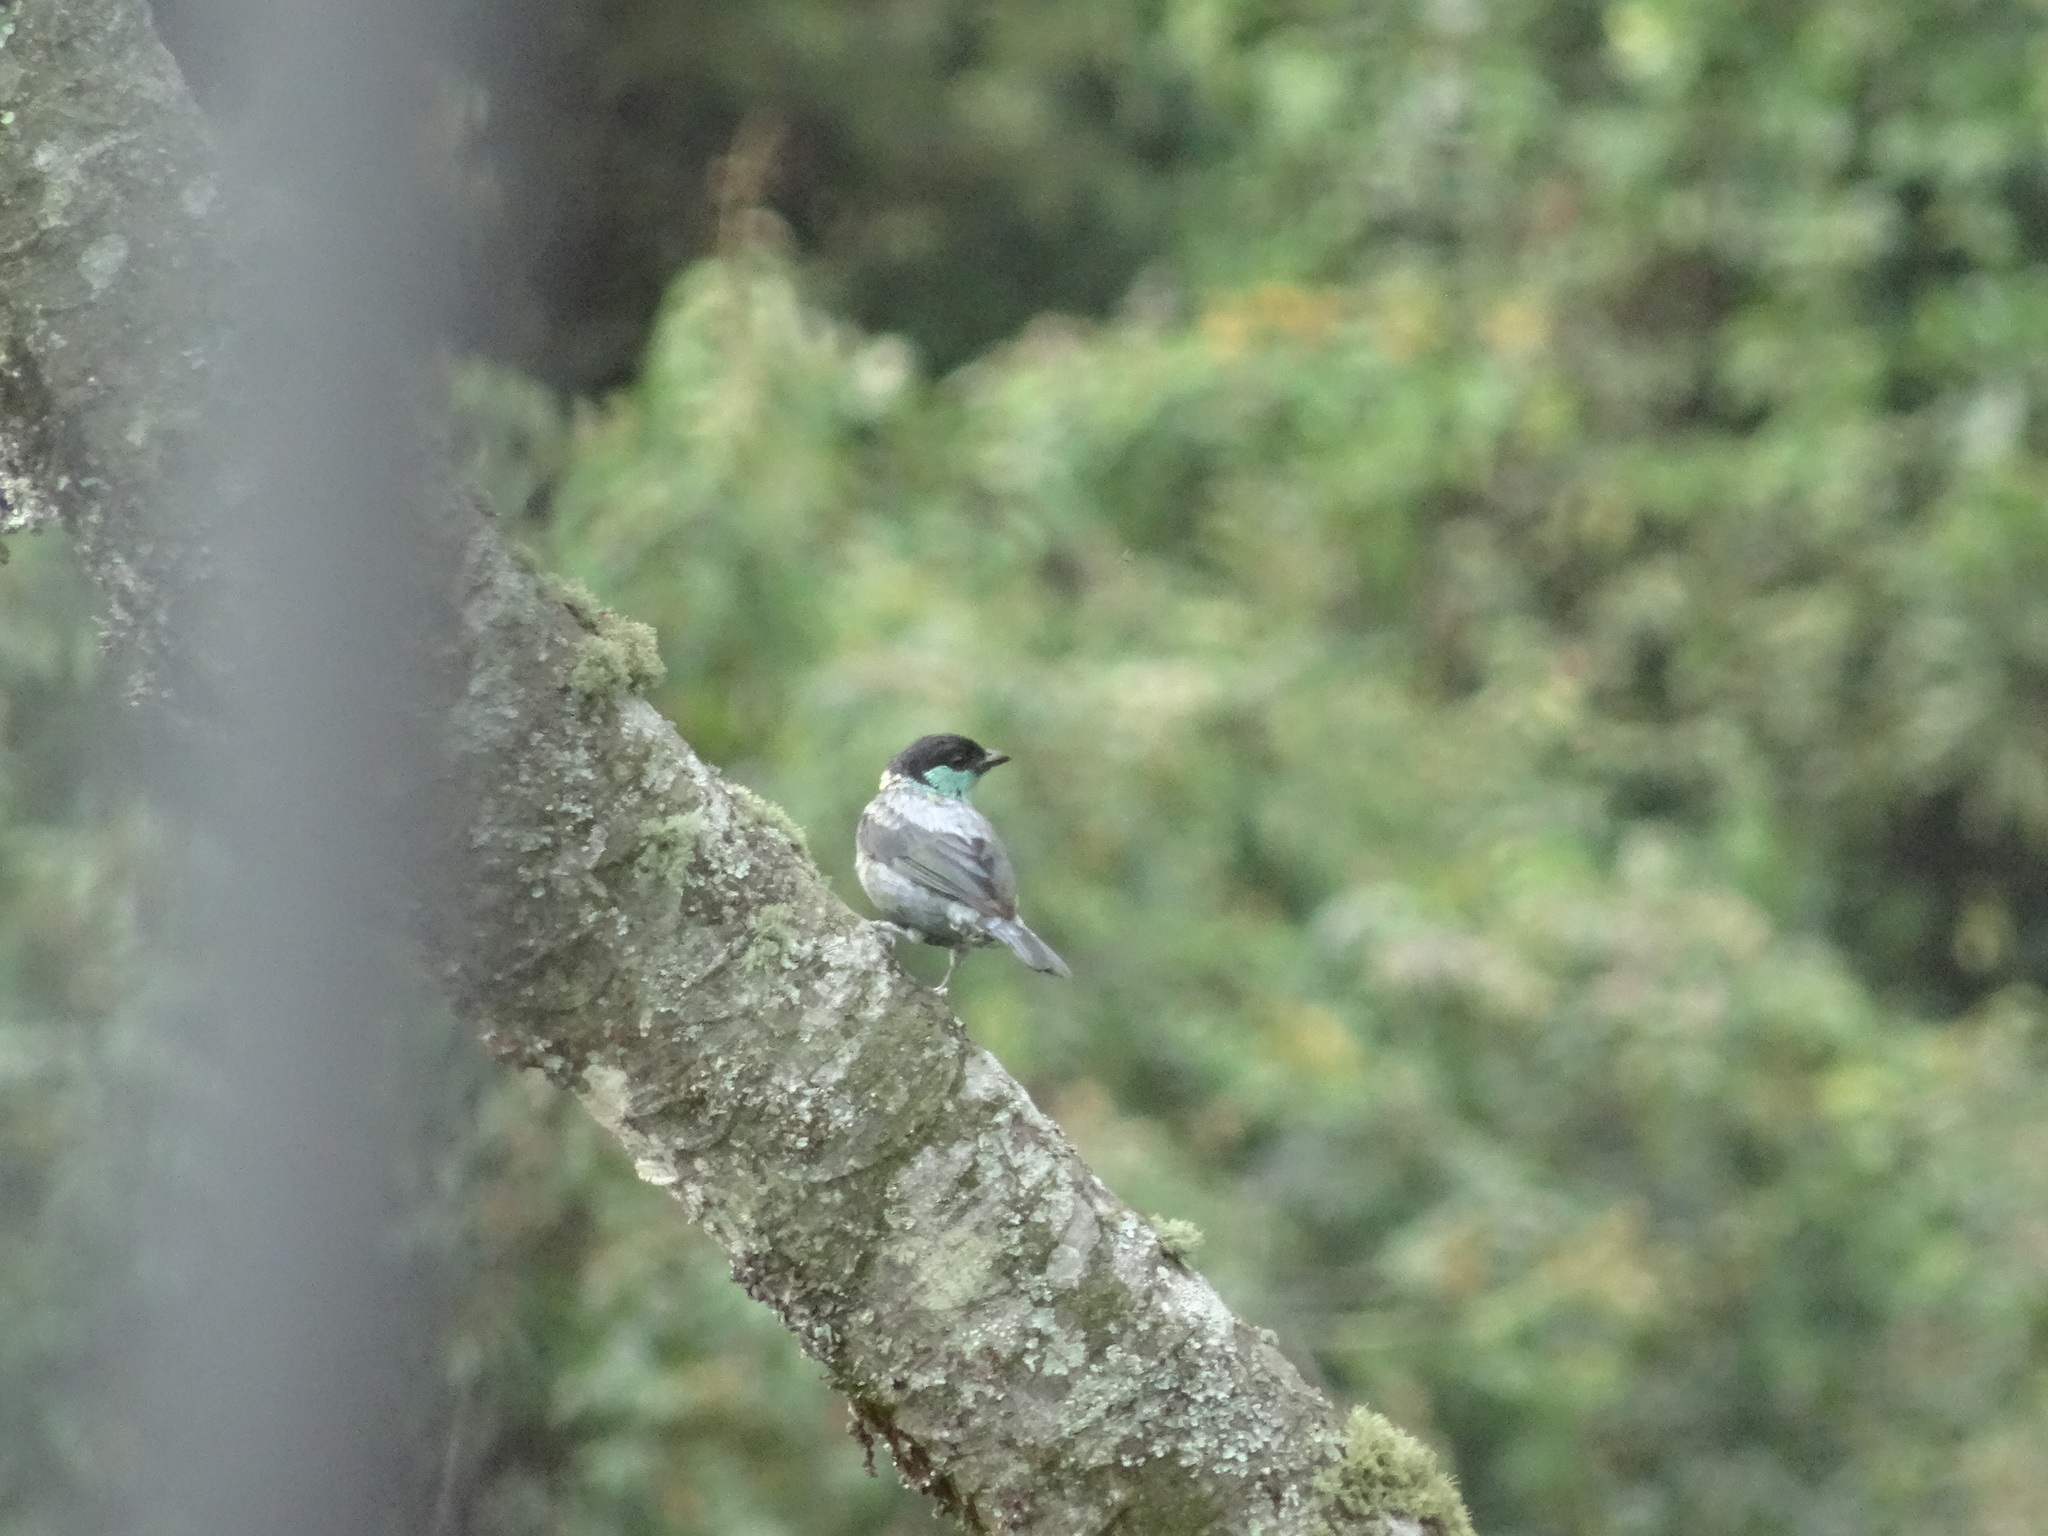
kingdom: Animalia
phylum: Chordata
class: Aves
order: Passeriformes
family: Thraupidae
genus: Stilpnia
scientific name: Stilpnia heinei
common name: Black-capped tanager
